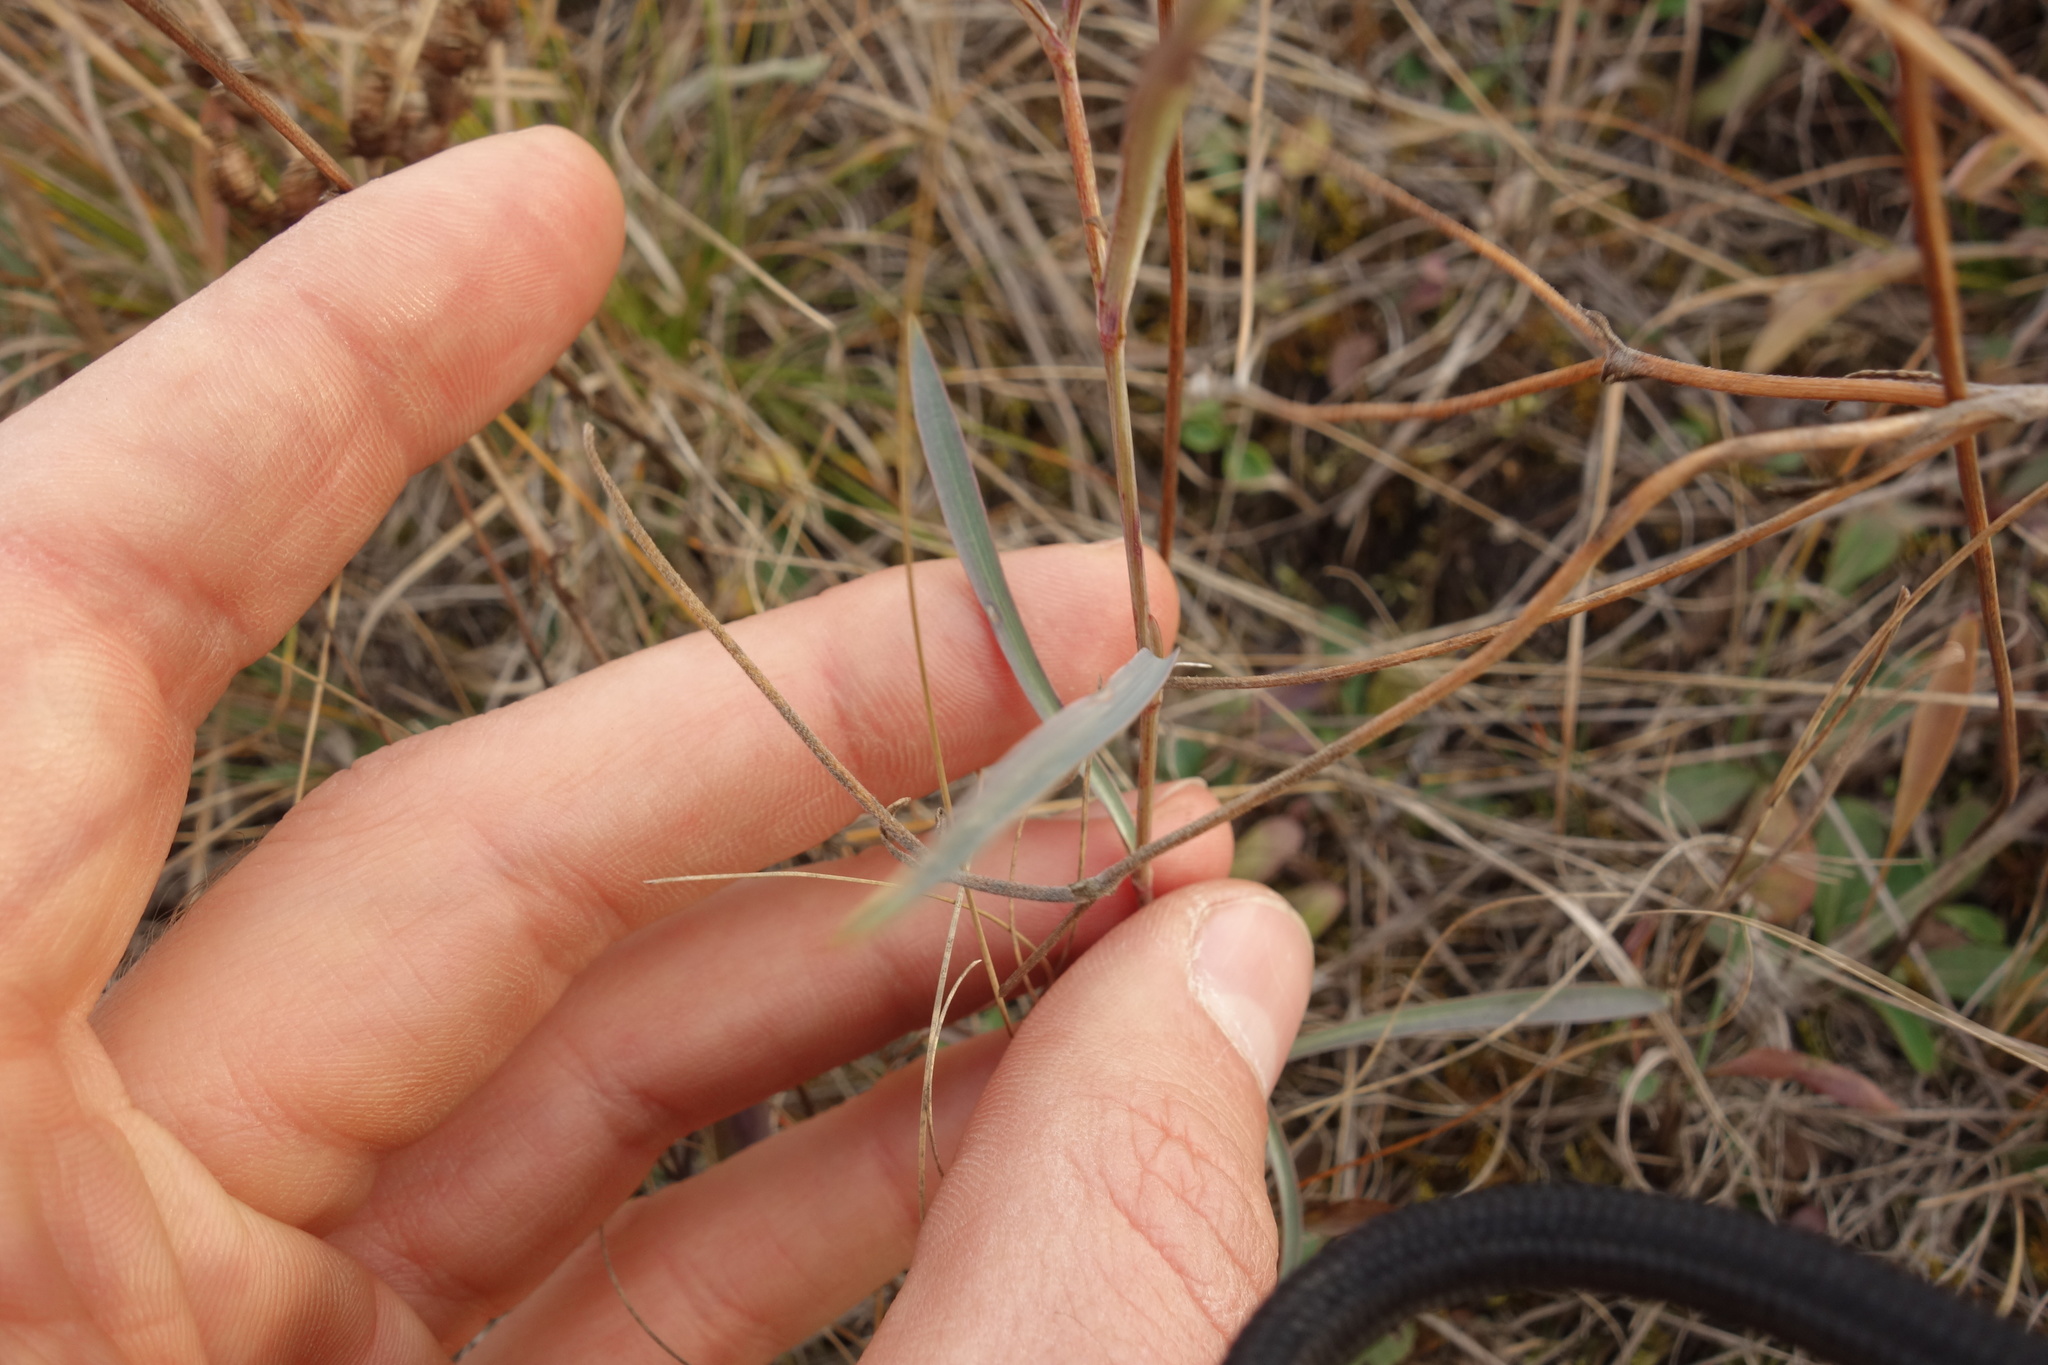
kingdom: Plantae
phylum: Tracheophyta
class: Magnoliopsida
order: Apiales
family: Apiaceae
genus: Bupleurum
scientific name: Bupleurum falcatum
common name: Sickle-leaved hare's-ear
